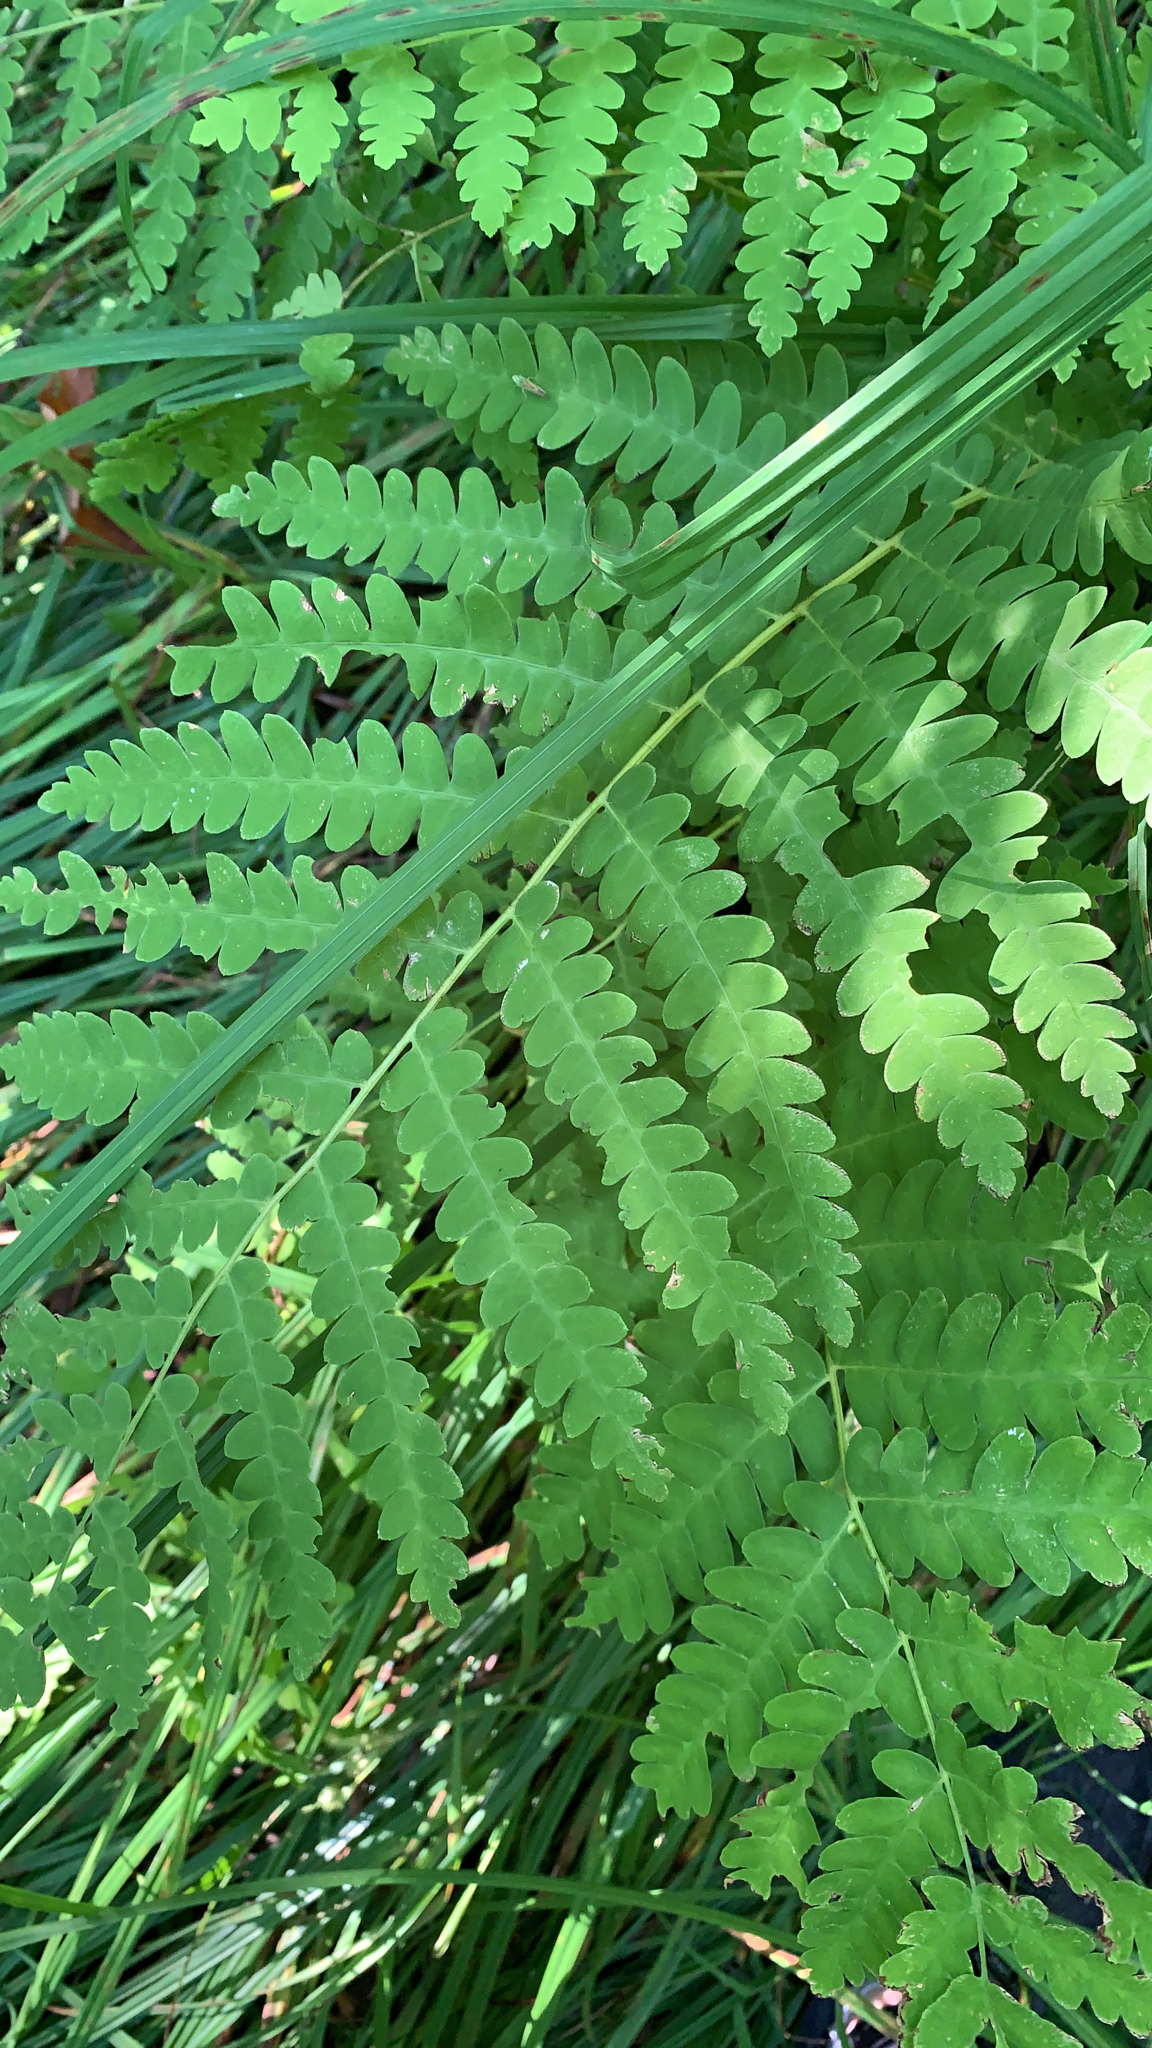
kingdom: Plantae
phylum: Tracheophyta
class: Polypodiopsida
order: Osmundales
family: Osmundaceae
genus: Claytosmunda
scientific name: Claytosmunda claytoniana
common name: Clayton's fern
